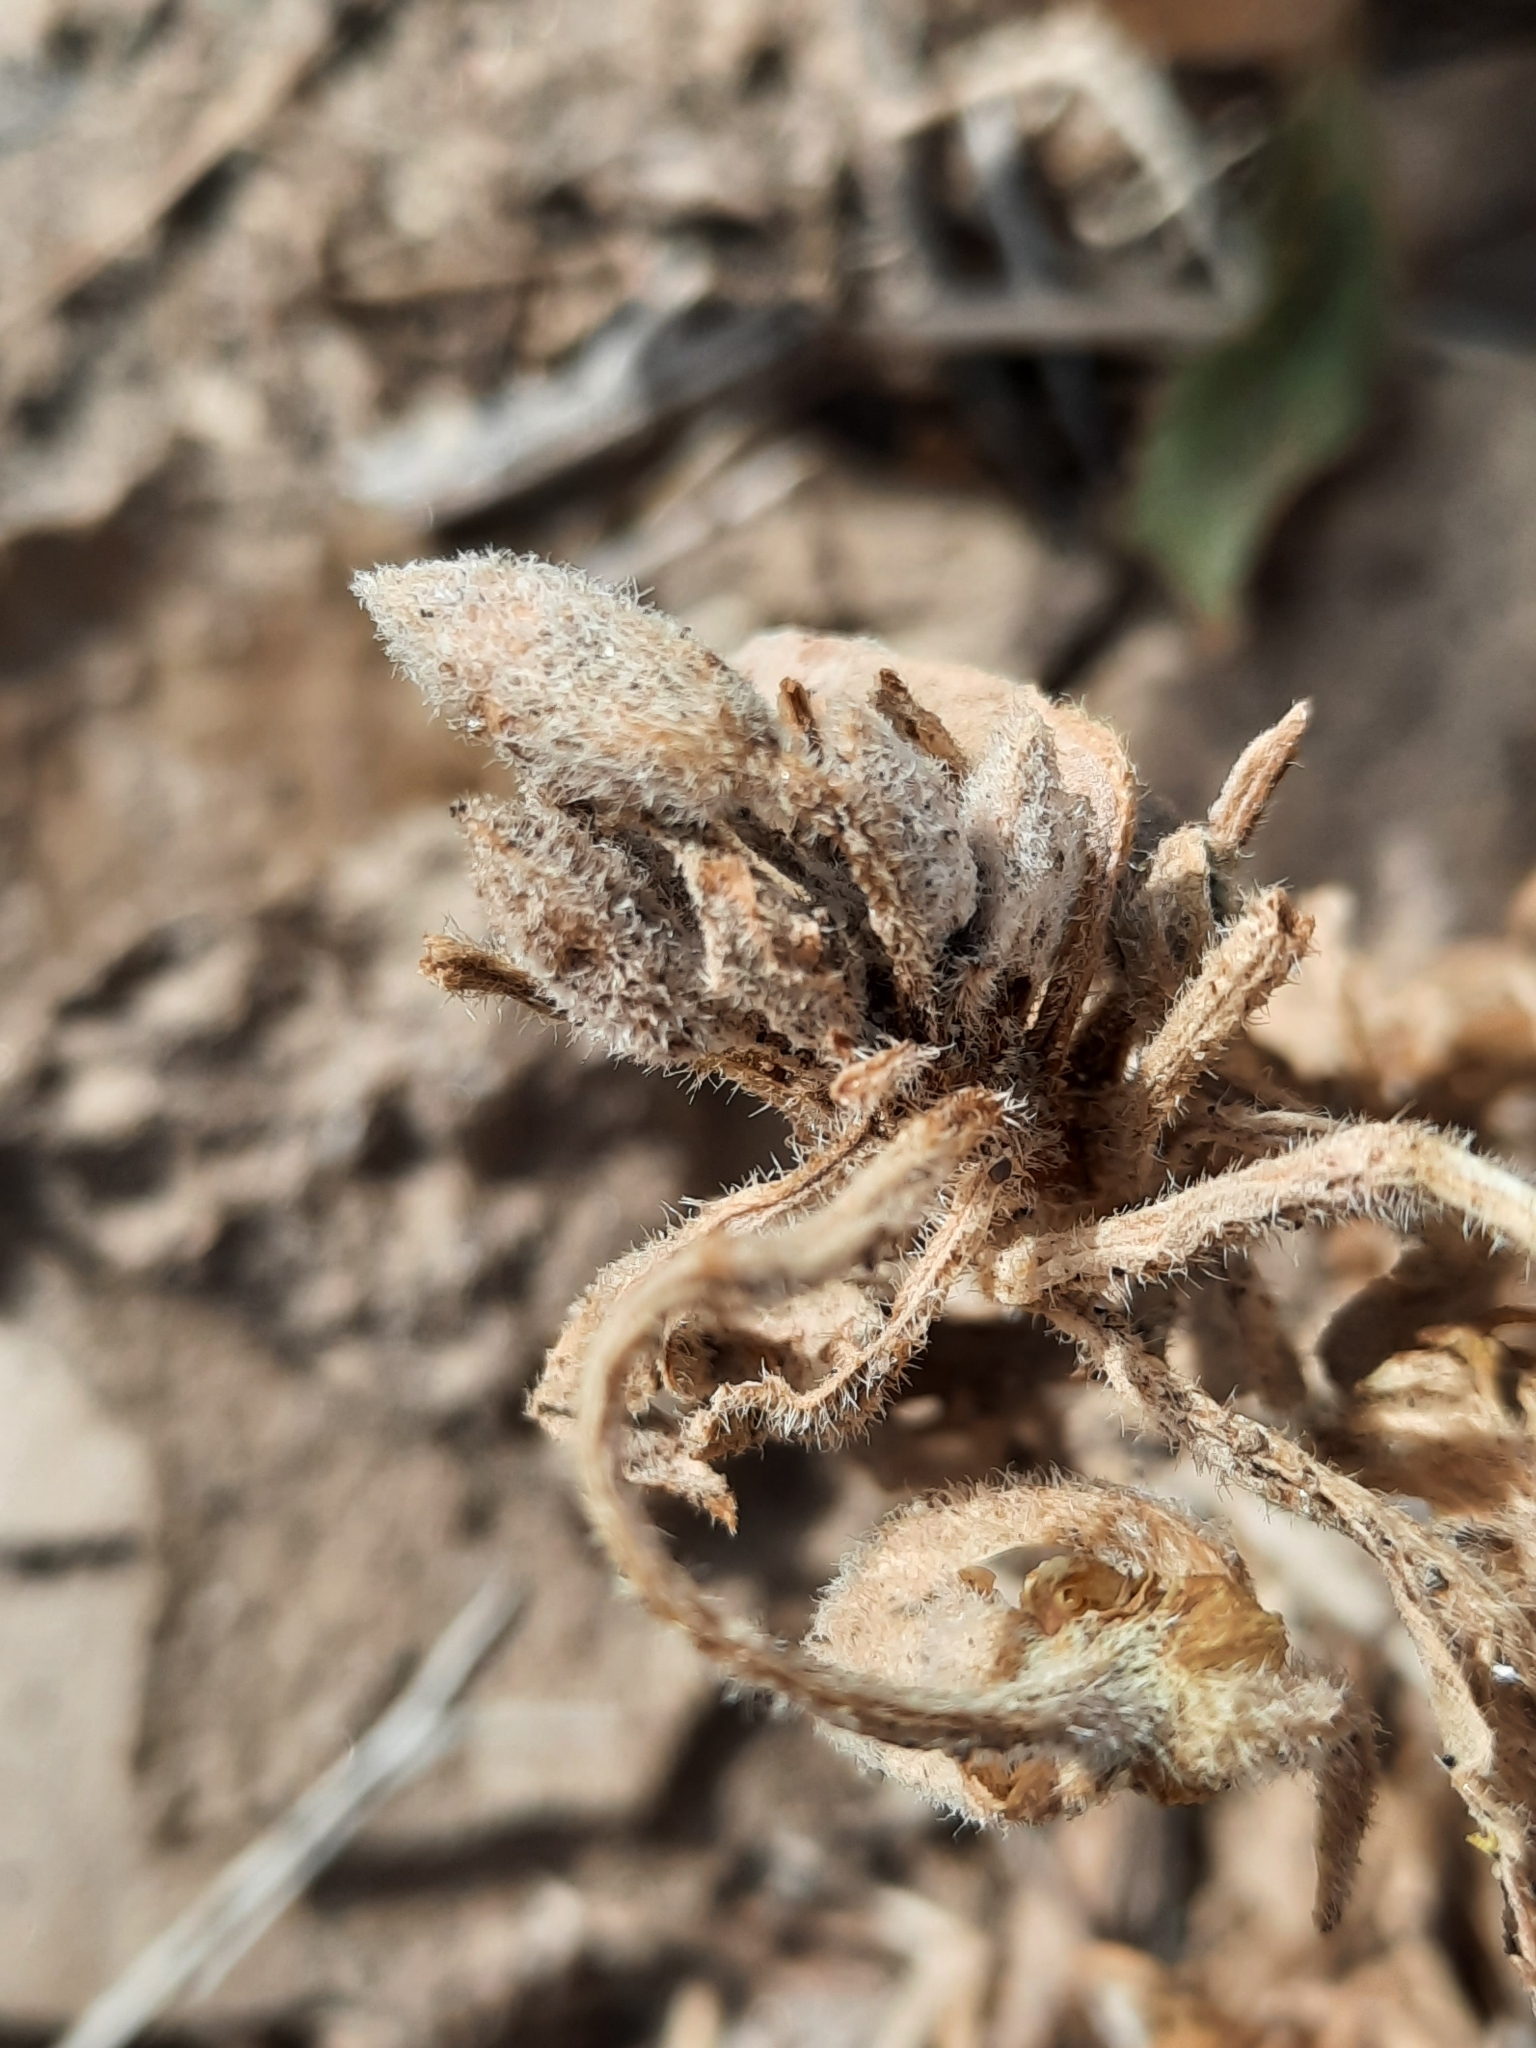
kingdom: Plantae
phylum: Tracheophyta
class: Magnoliopsida
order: Myrtales
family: Onagraceae
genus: Oenothera
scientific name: Oenothera deltoides
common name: Basket evening-primrose
